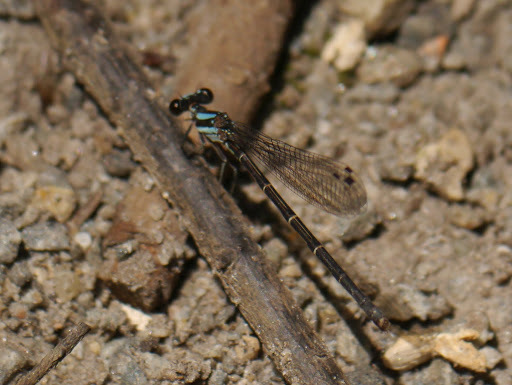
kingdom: Animalia
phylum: Arthropoda
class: Insecta
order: Odonata
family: Coenagrionidae
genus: Argia
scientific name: Argia tibialis
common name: Blue-tipped dancer
